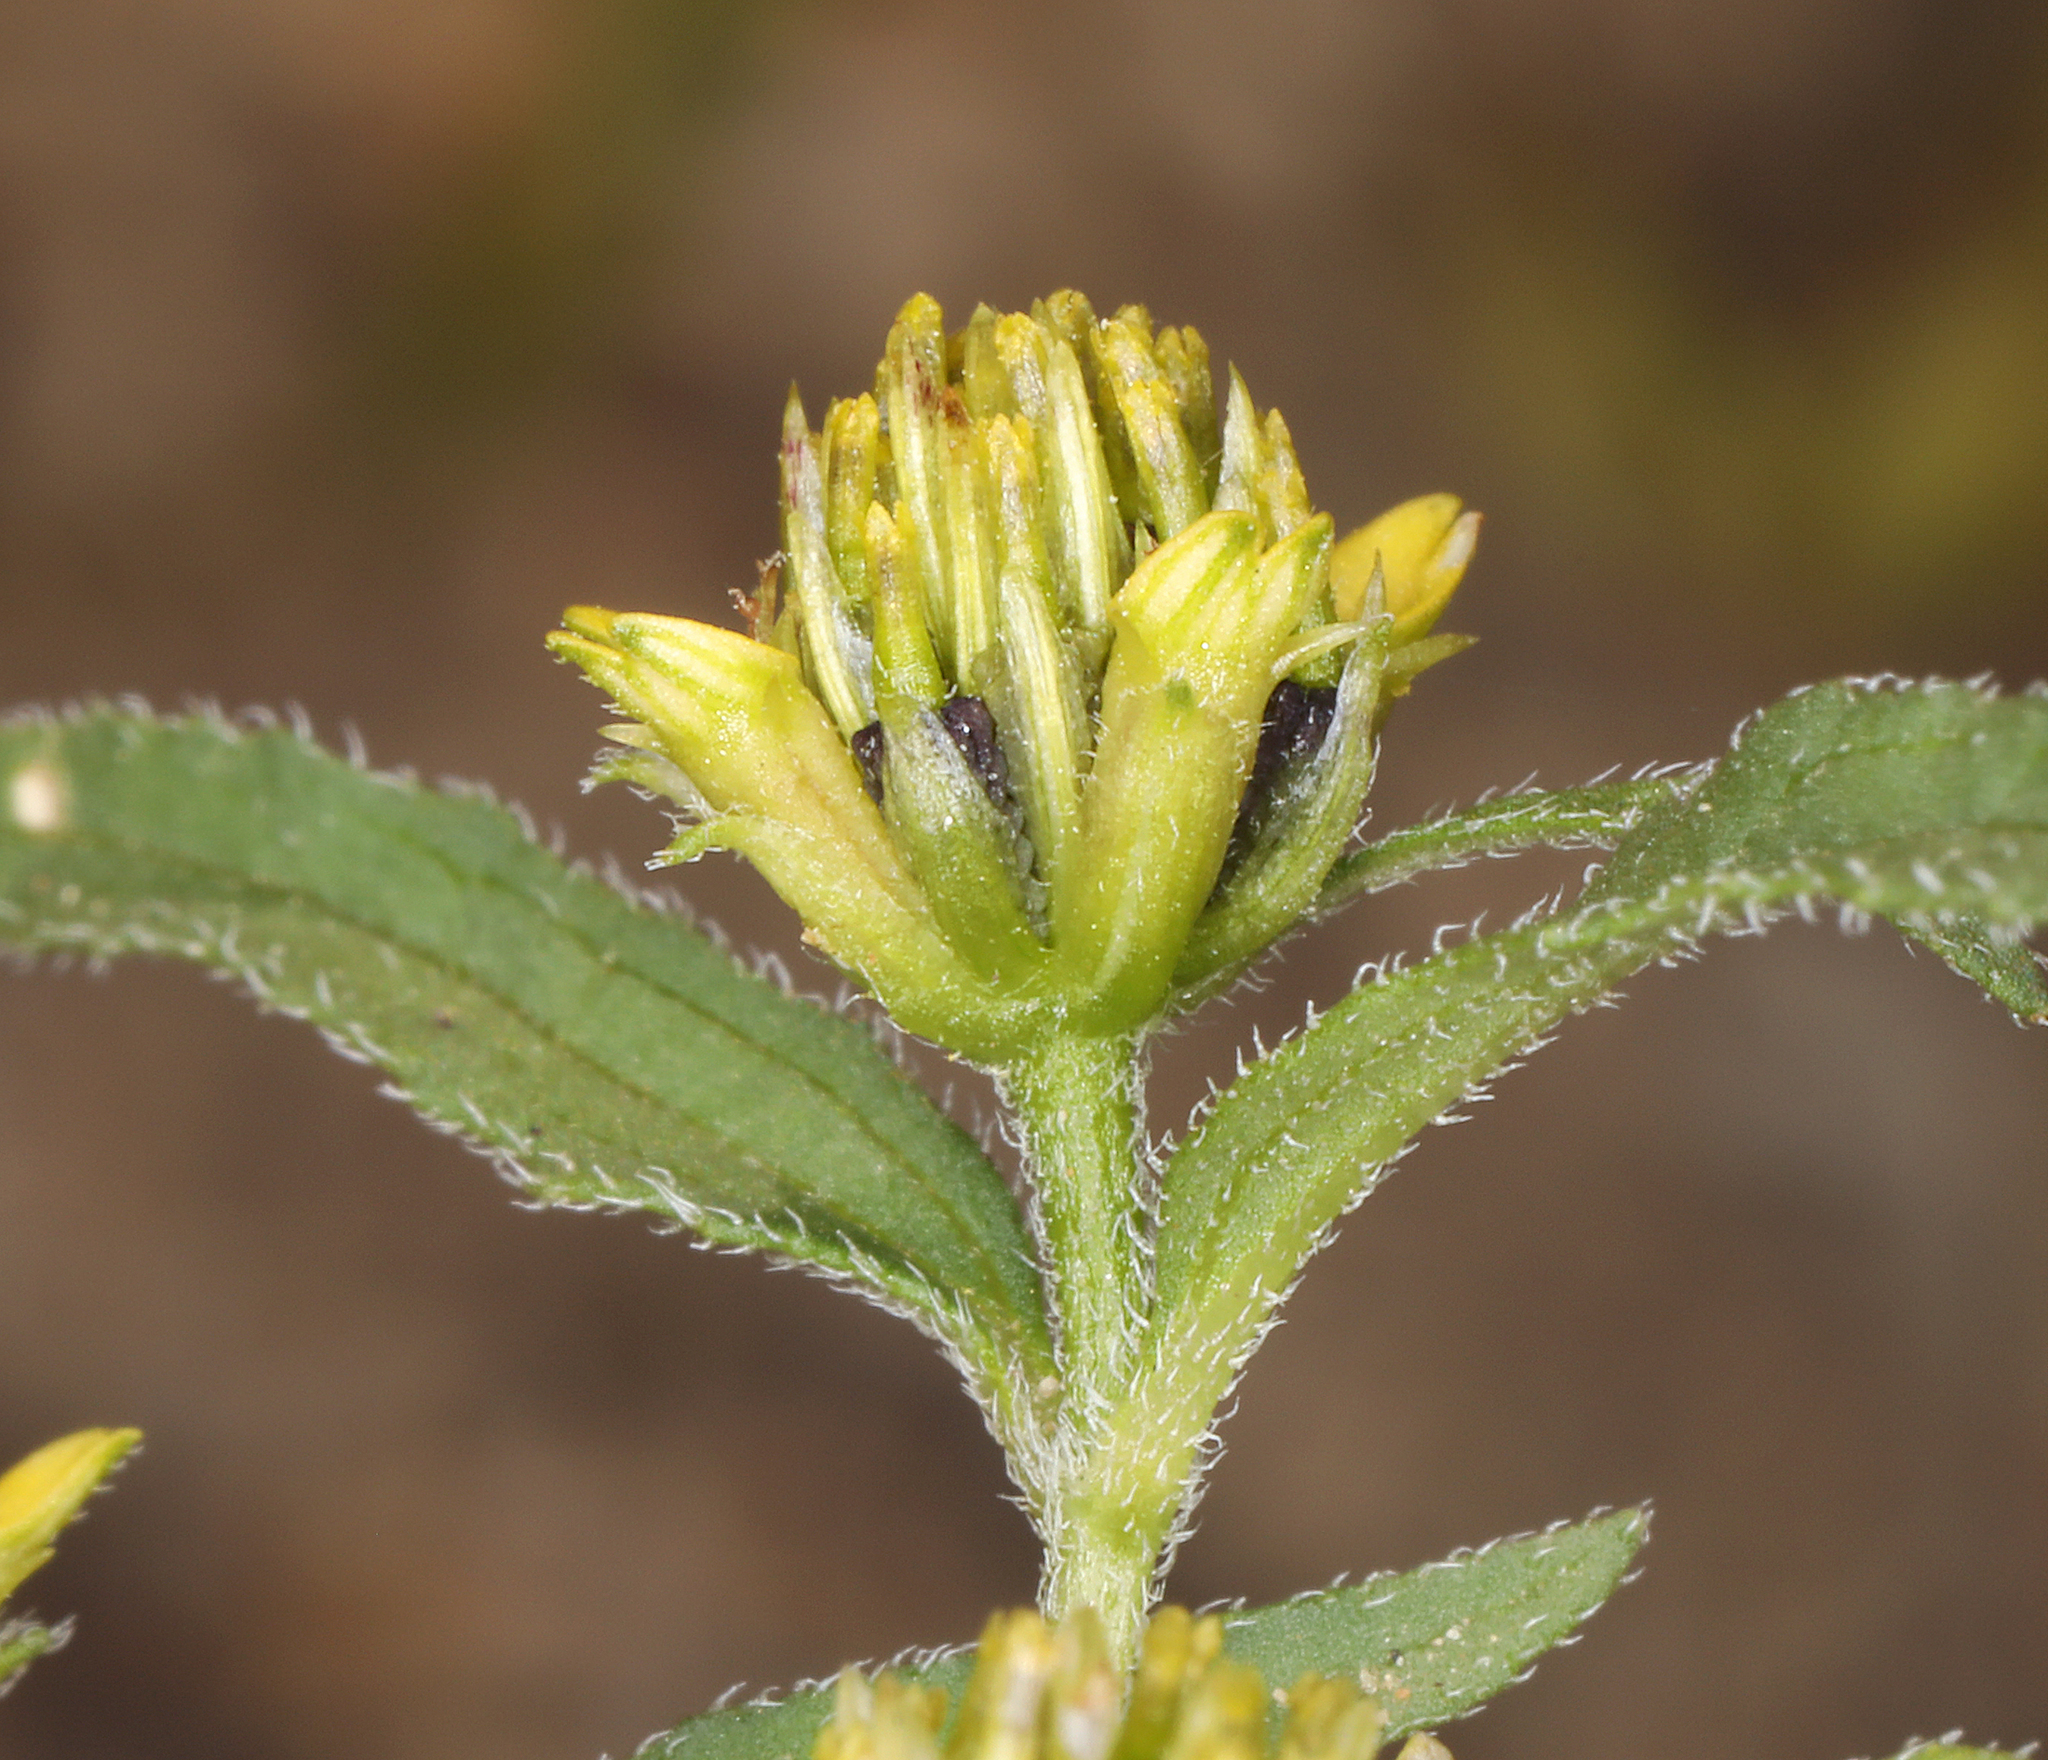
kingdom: Plantae
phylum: Tracheophyta
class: Magnoliopsida
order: Asterales
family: Asteraceae
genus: Sanvitalia
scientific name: Sanvitalia abertii
